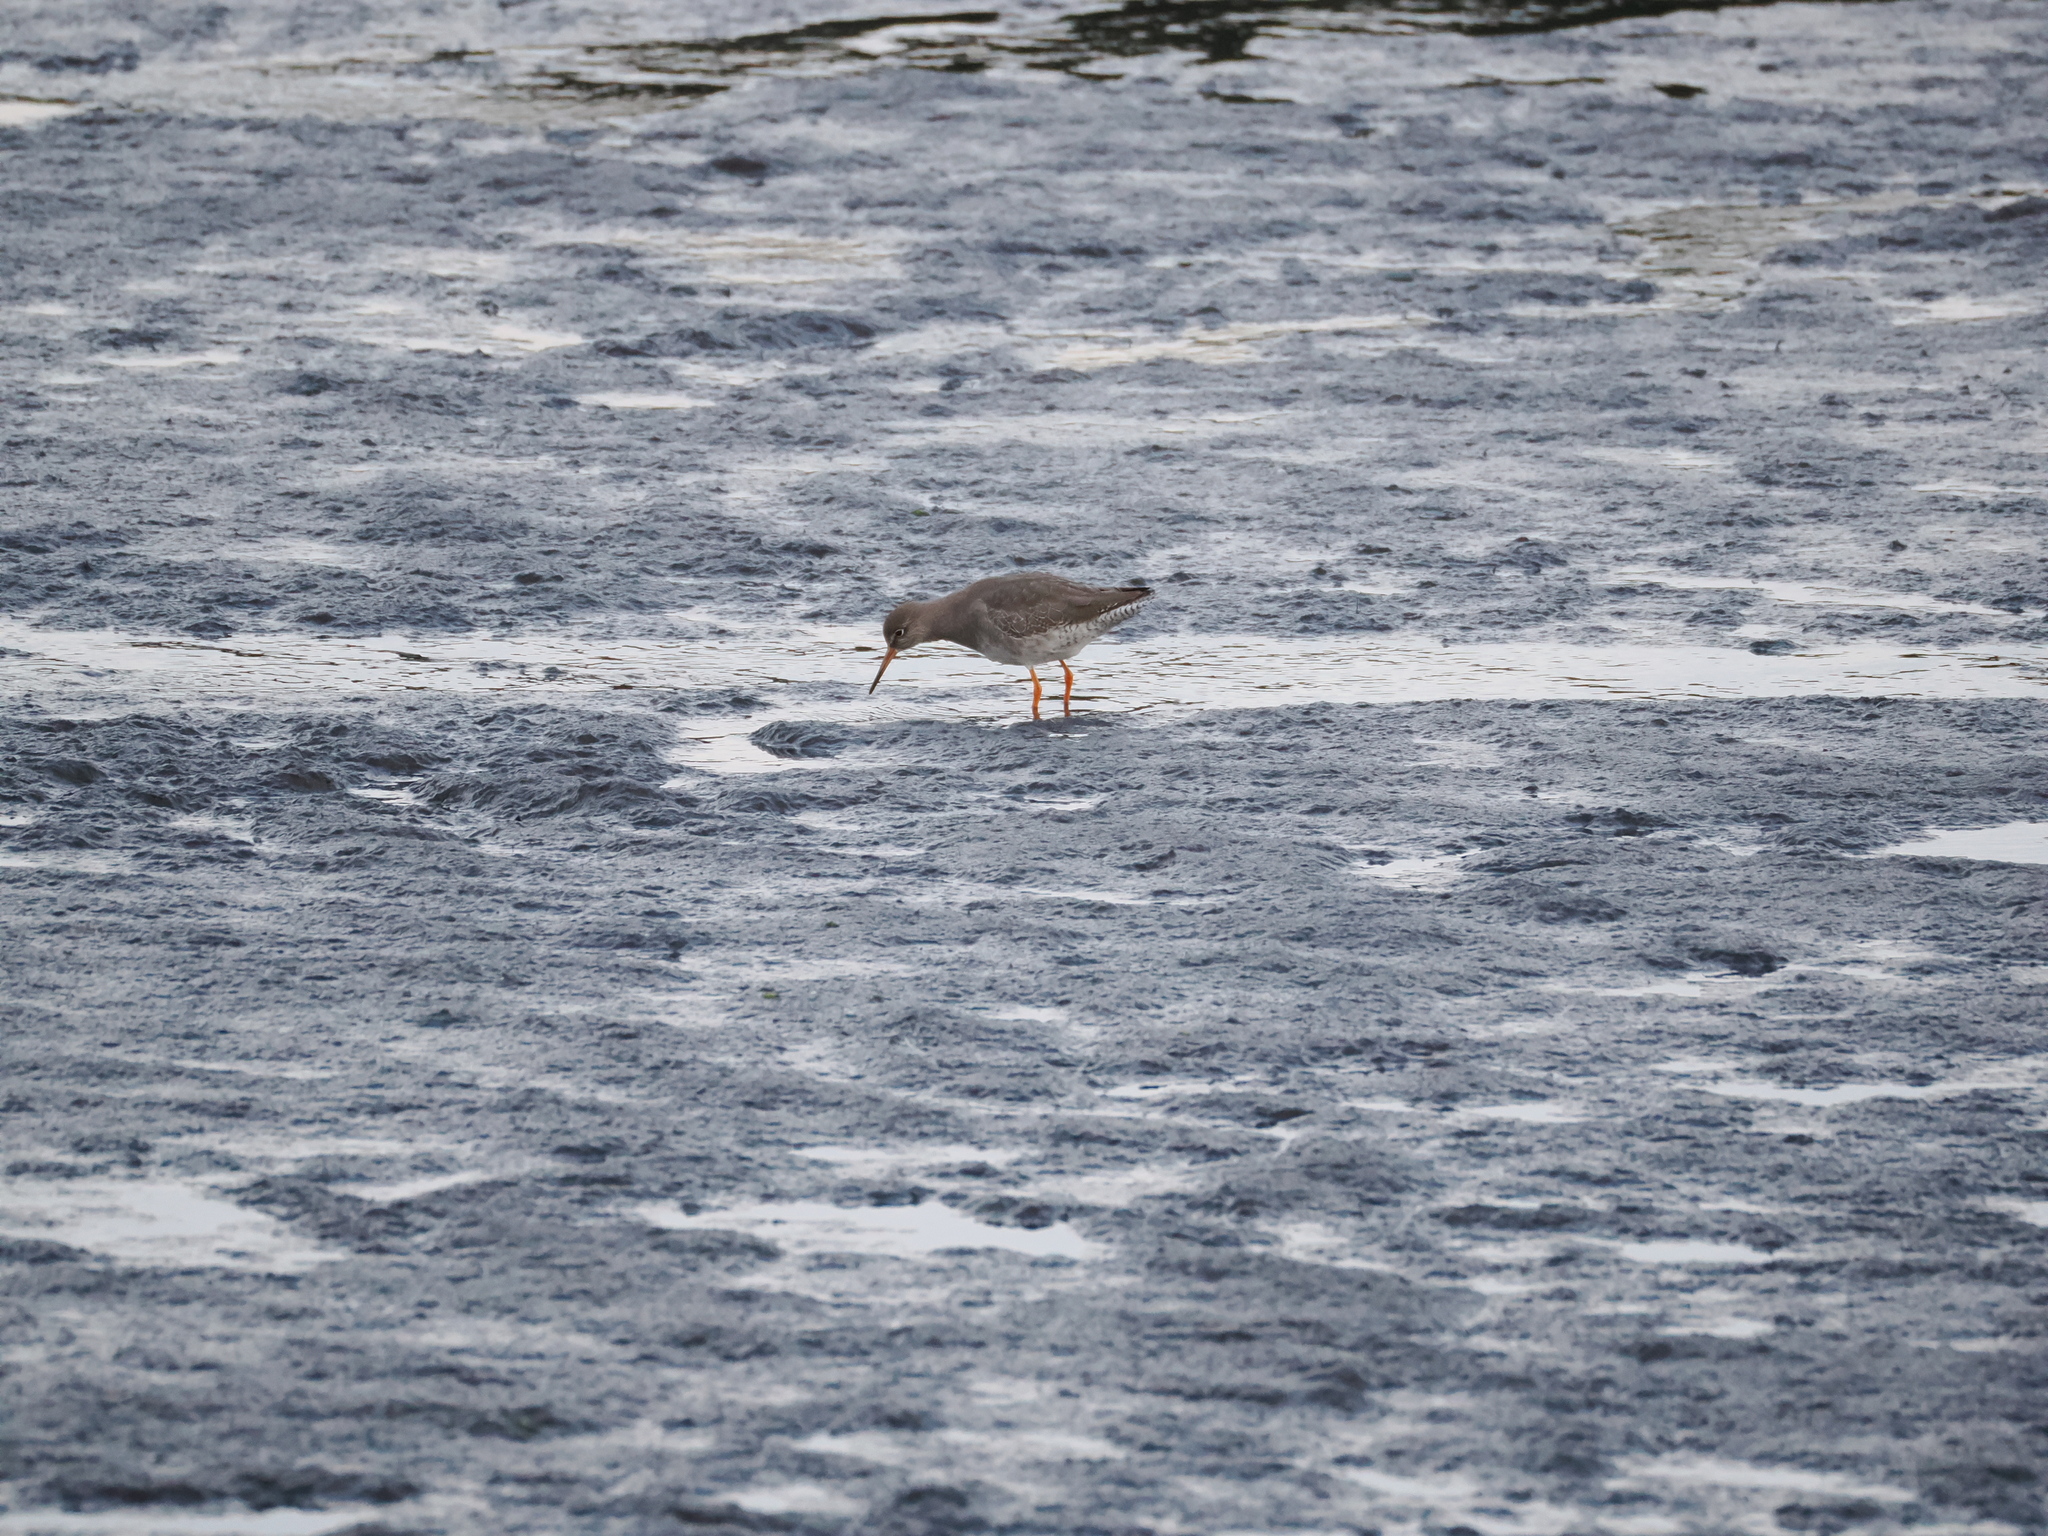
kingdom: Animalia
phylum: Chordata
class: Aves
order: Charadriiformes
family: Scolopacidae
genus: Tringa
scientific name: Tringa totanus
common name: Common redshank
